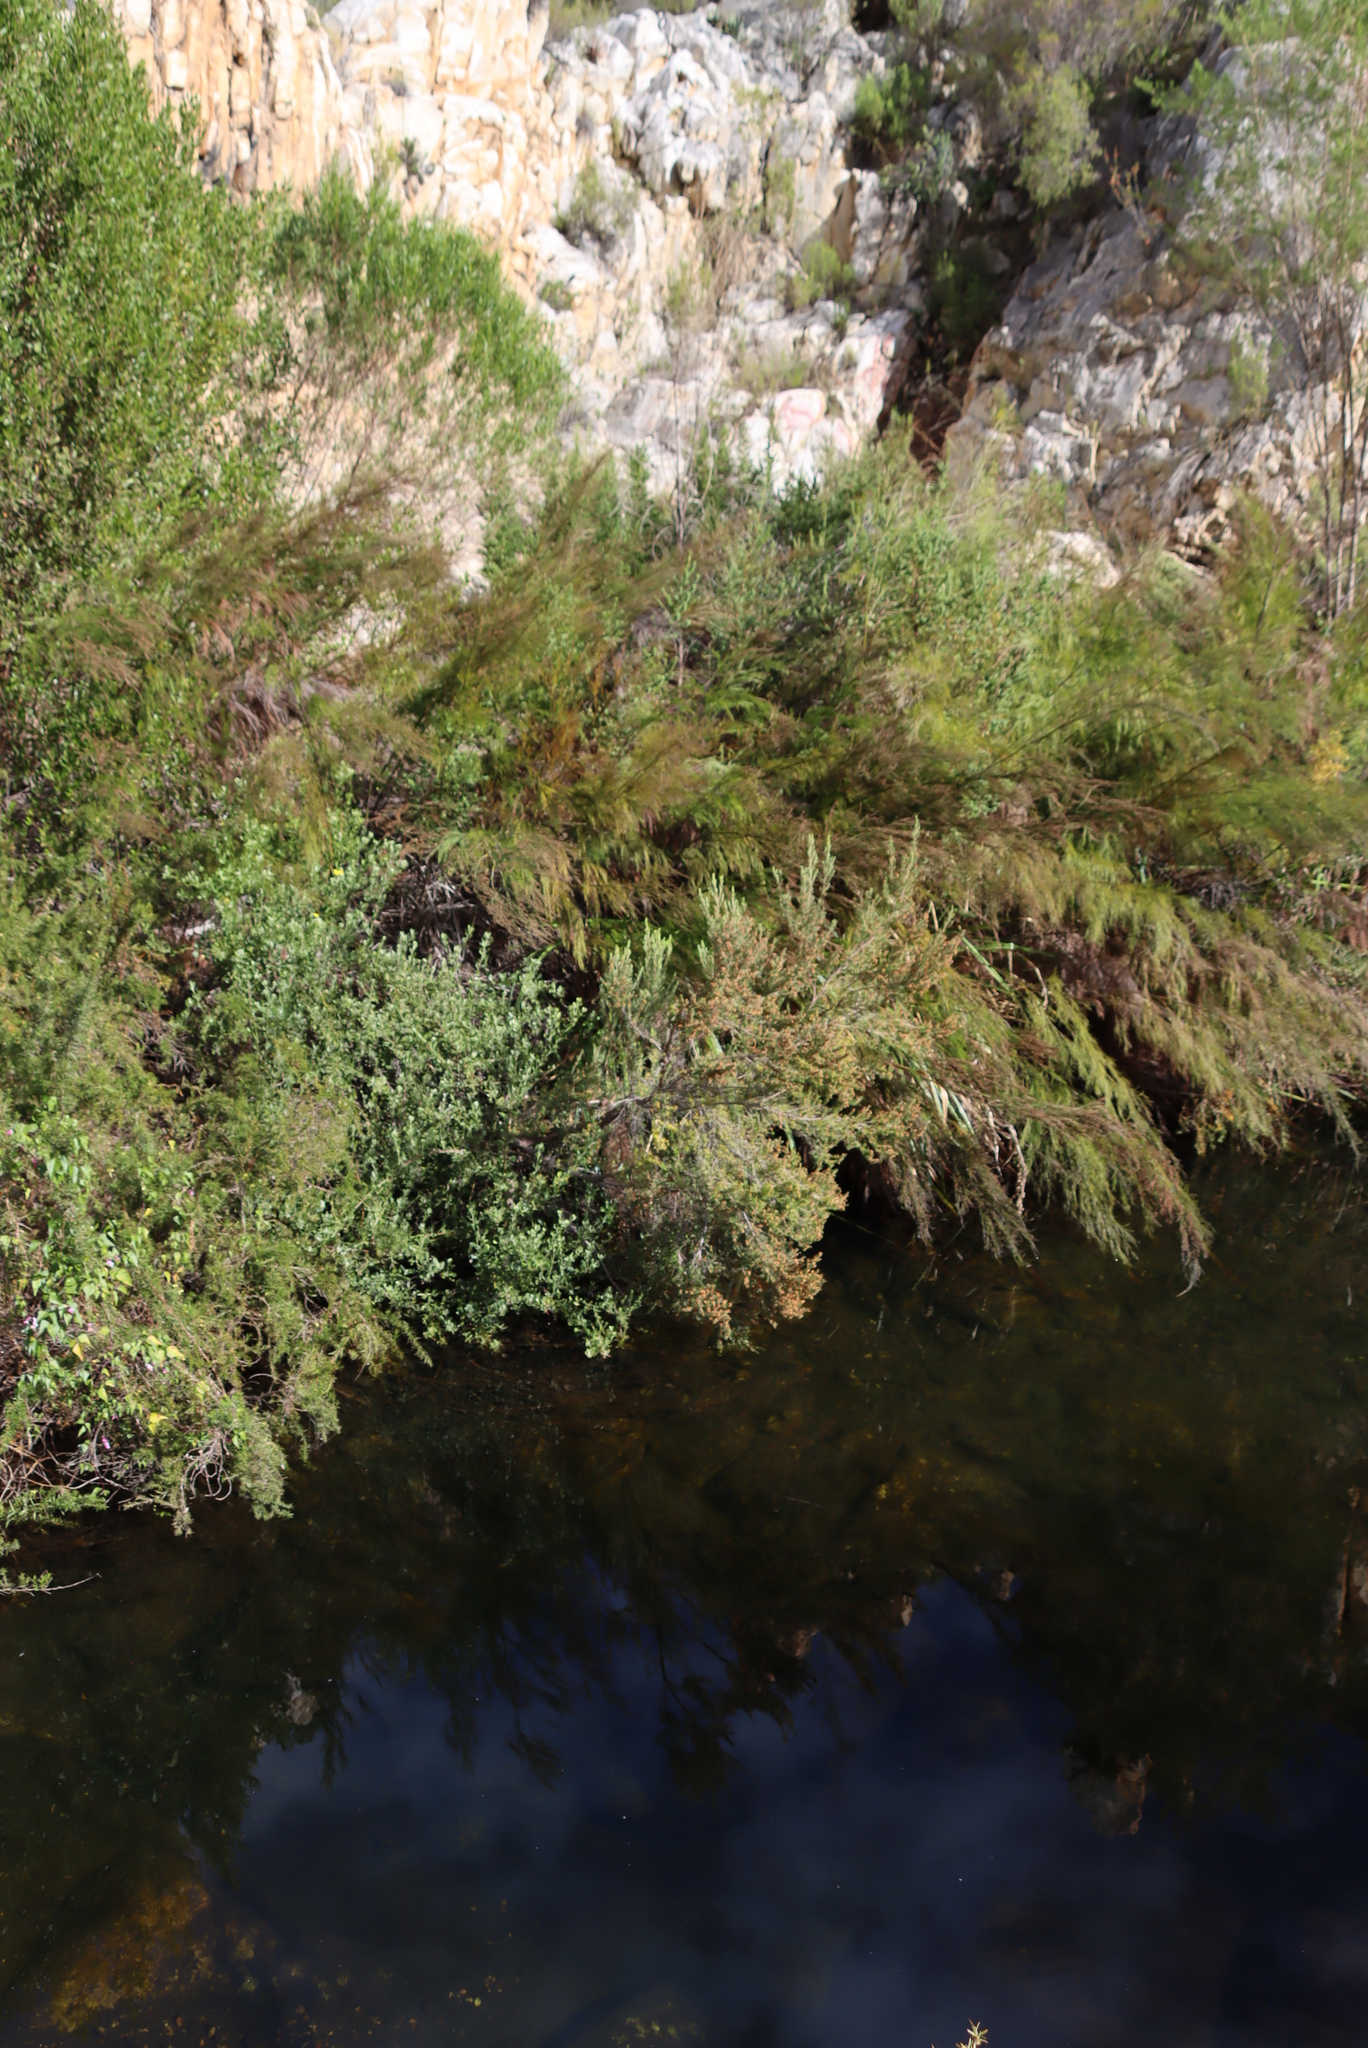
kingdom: Plantae
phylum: Tracheophyta
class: Magnoliopsida
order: Ericales
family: Ericaceae
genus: Erica
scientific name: Erica caffra
